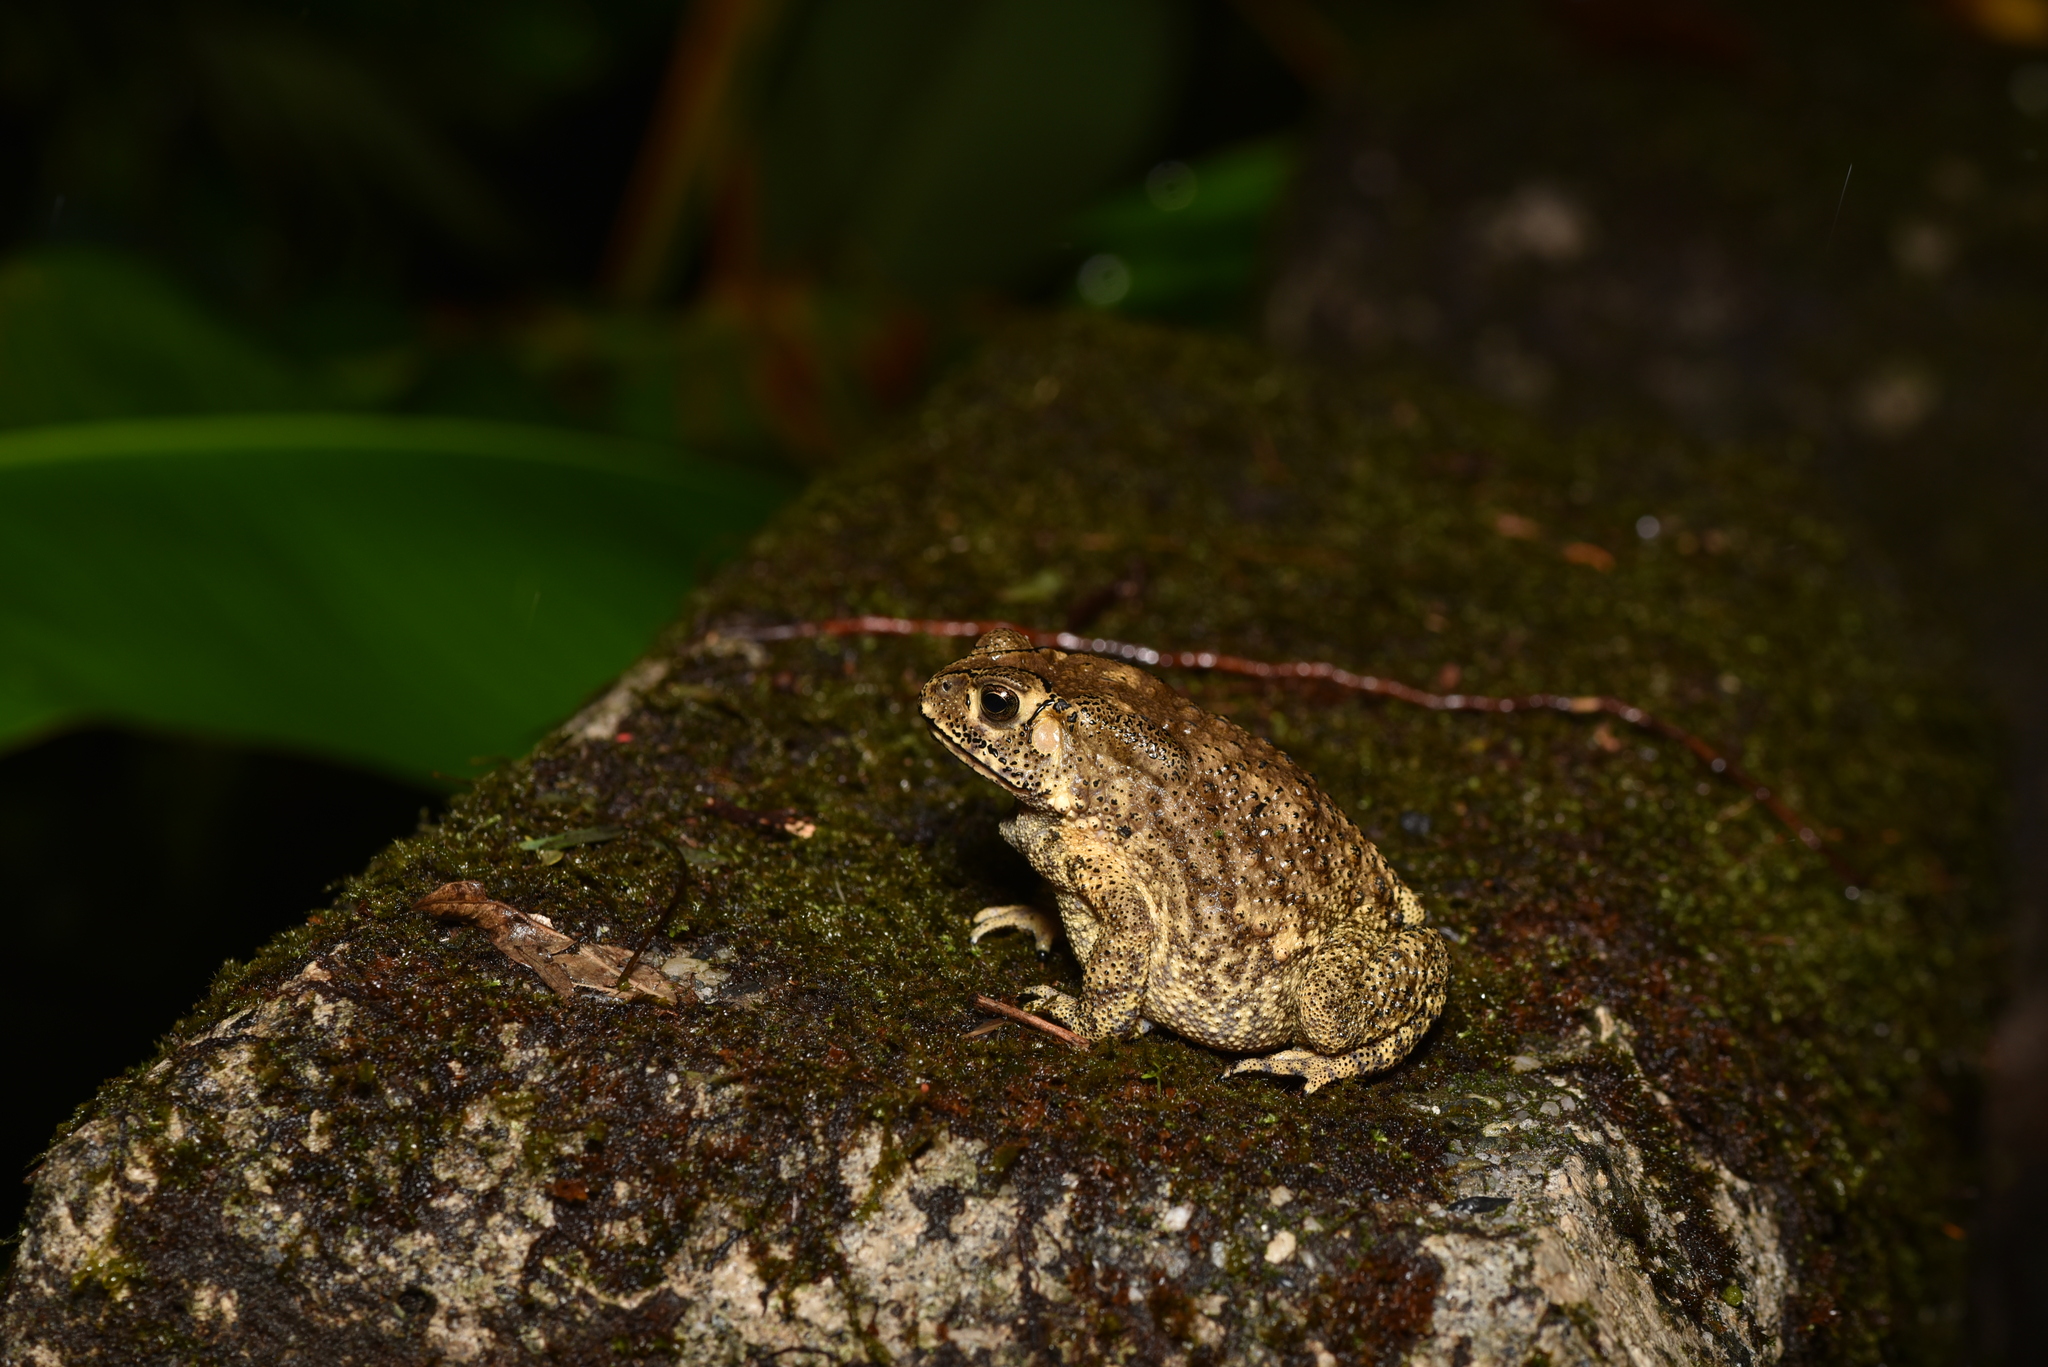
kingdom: Animalia
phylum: Chordata
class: Amphibia
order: Anura
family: Bufonidae
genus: Duttaphrynus
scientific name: Duttaphrynus melanostictus
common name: Common sunda toad
